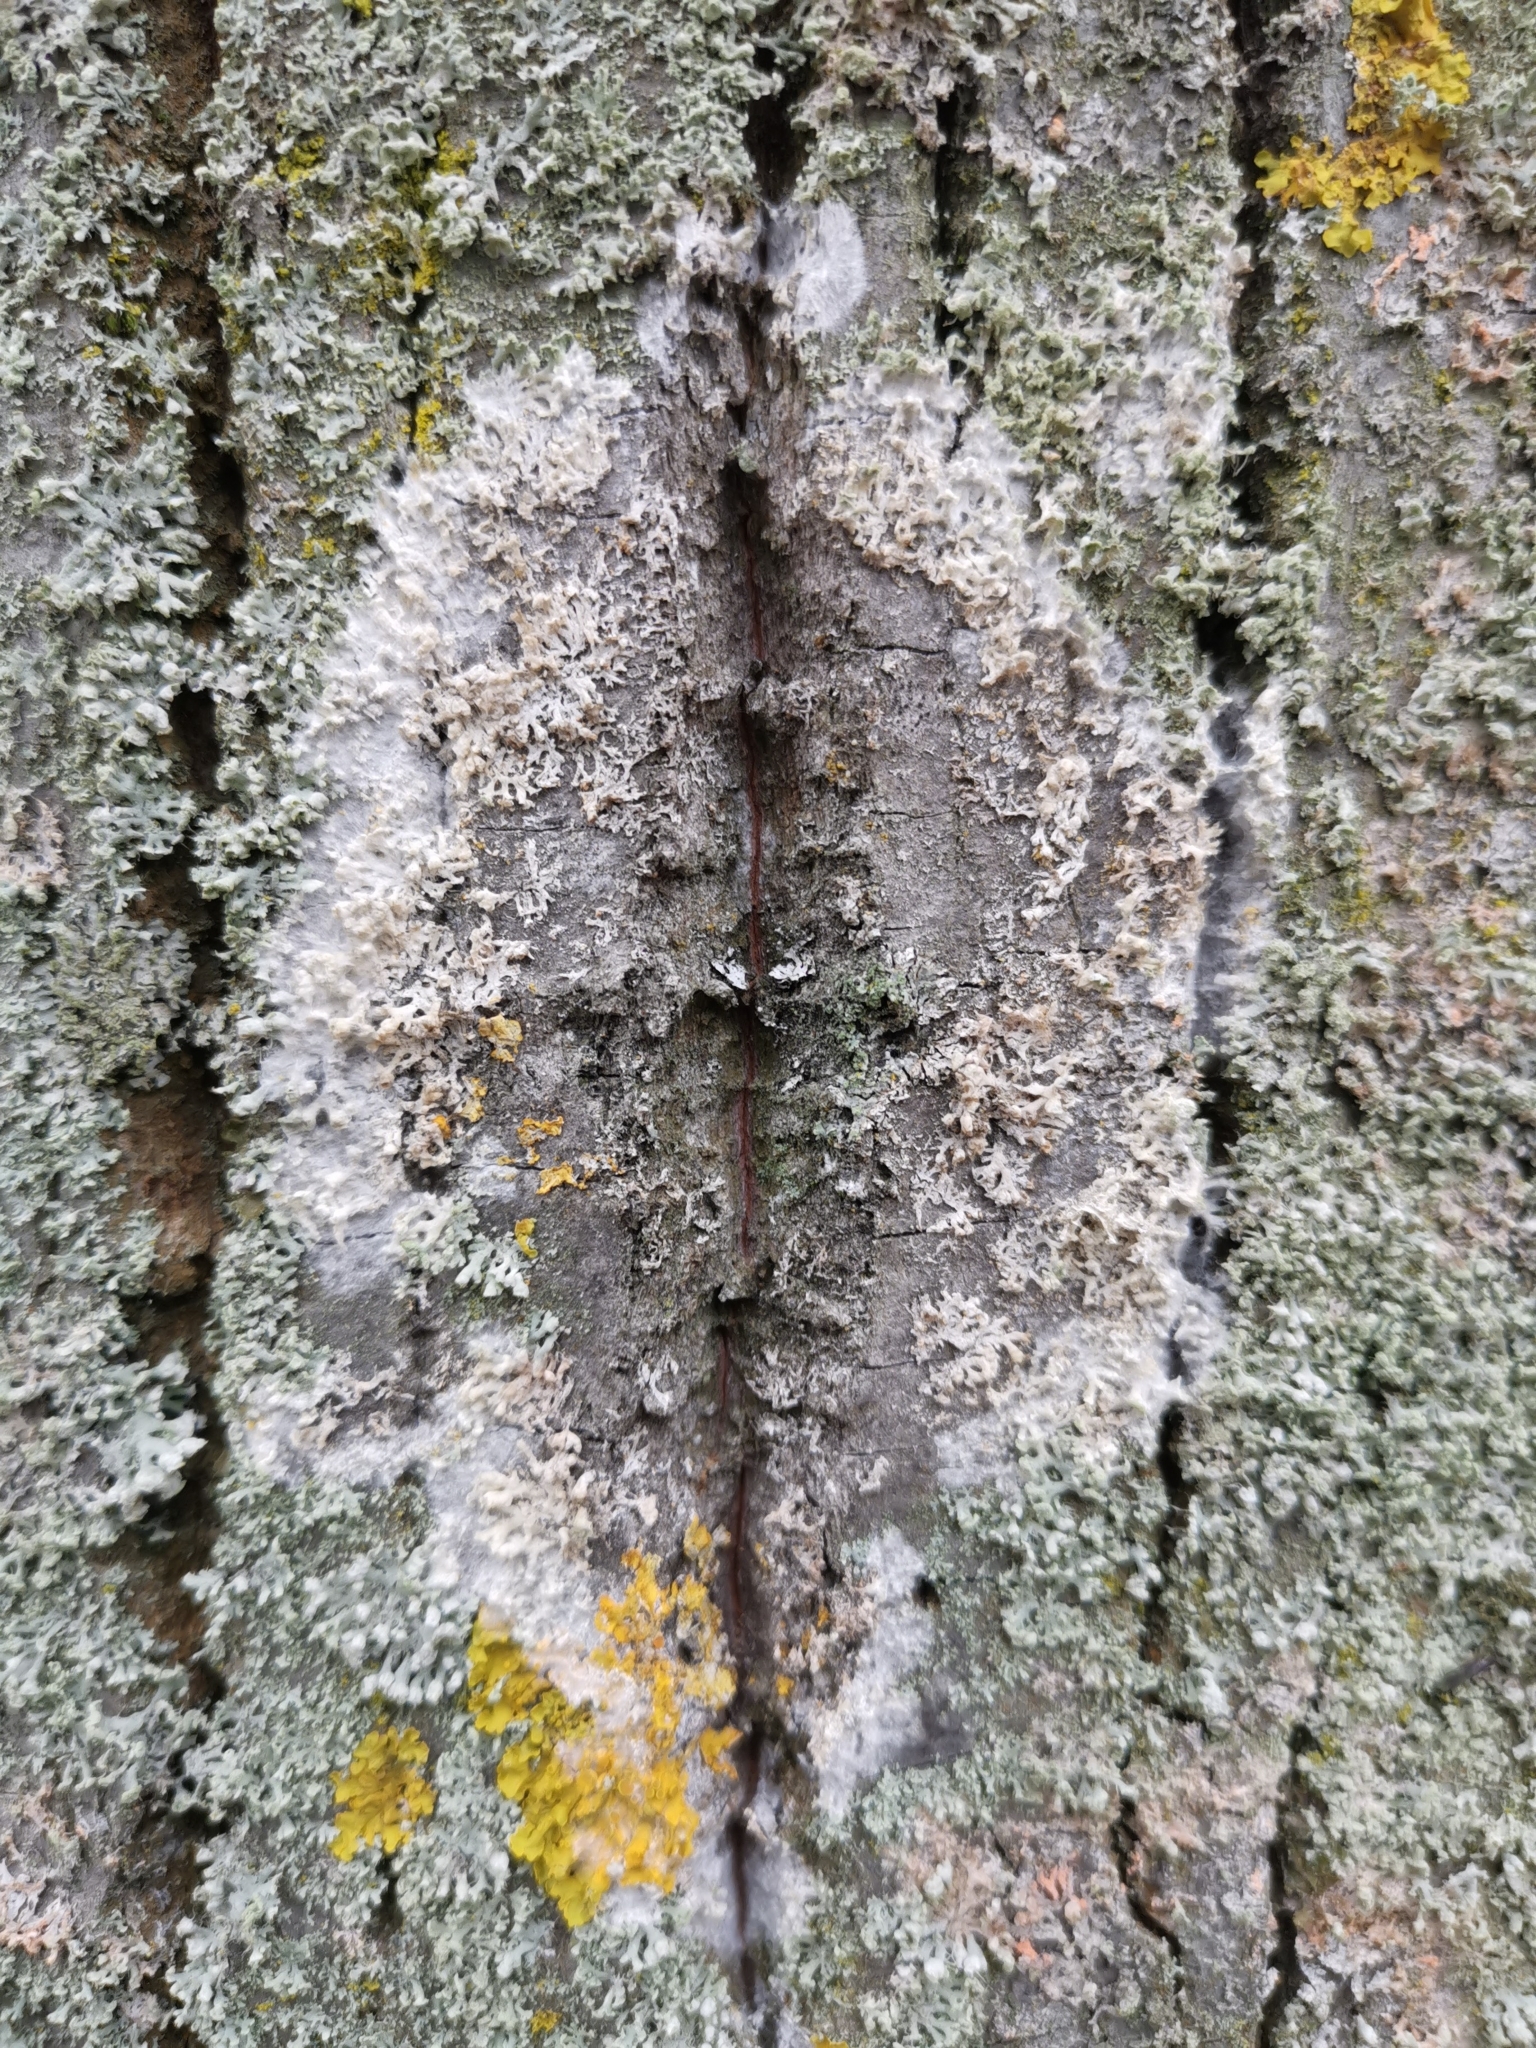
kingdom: Fungi
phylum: Basidiomycota
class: Agaricomycetes
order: Atheliales
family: Atheliaceae
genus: Athelia
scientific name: Athelia arachnoidea
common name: Candelabra duster
